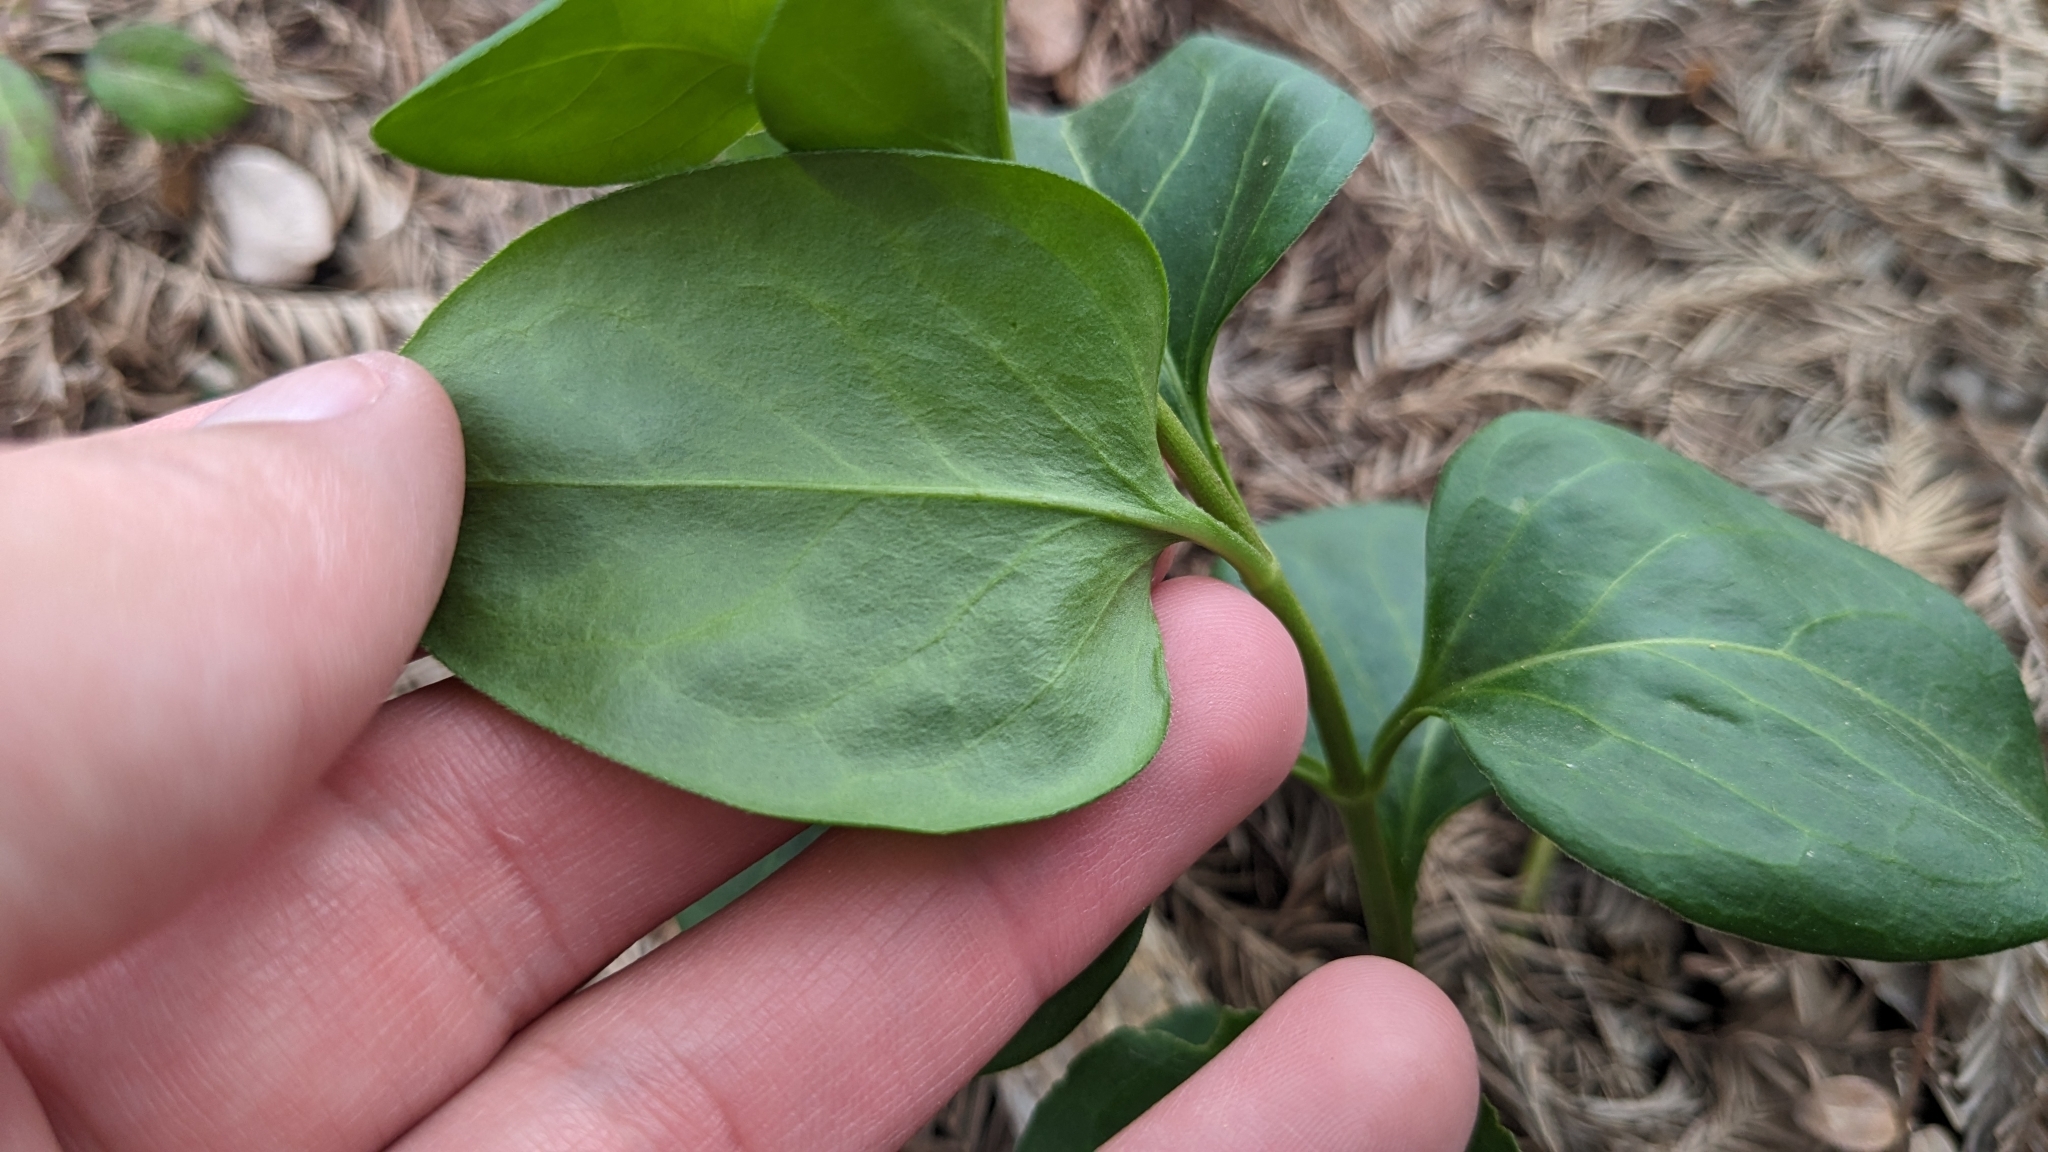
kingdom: Plantae
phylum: Tracheophyta
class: Magnoliopsida
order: Gentianales
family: Apocynaceae
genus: Vinca
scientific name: Vinca major
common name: Greater periwinkle
